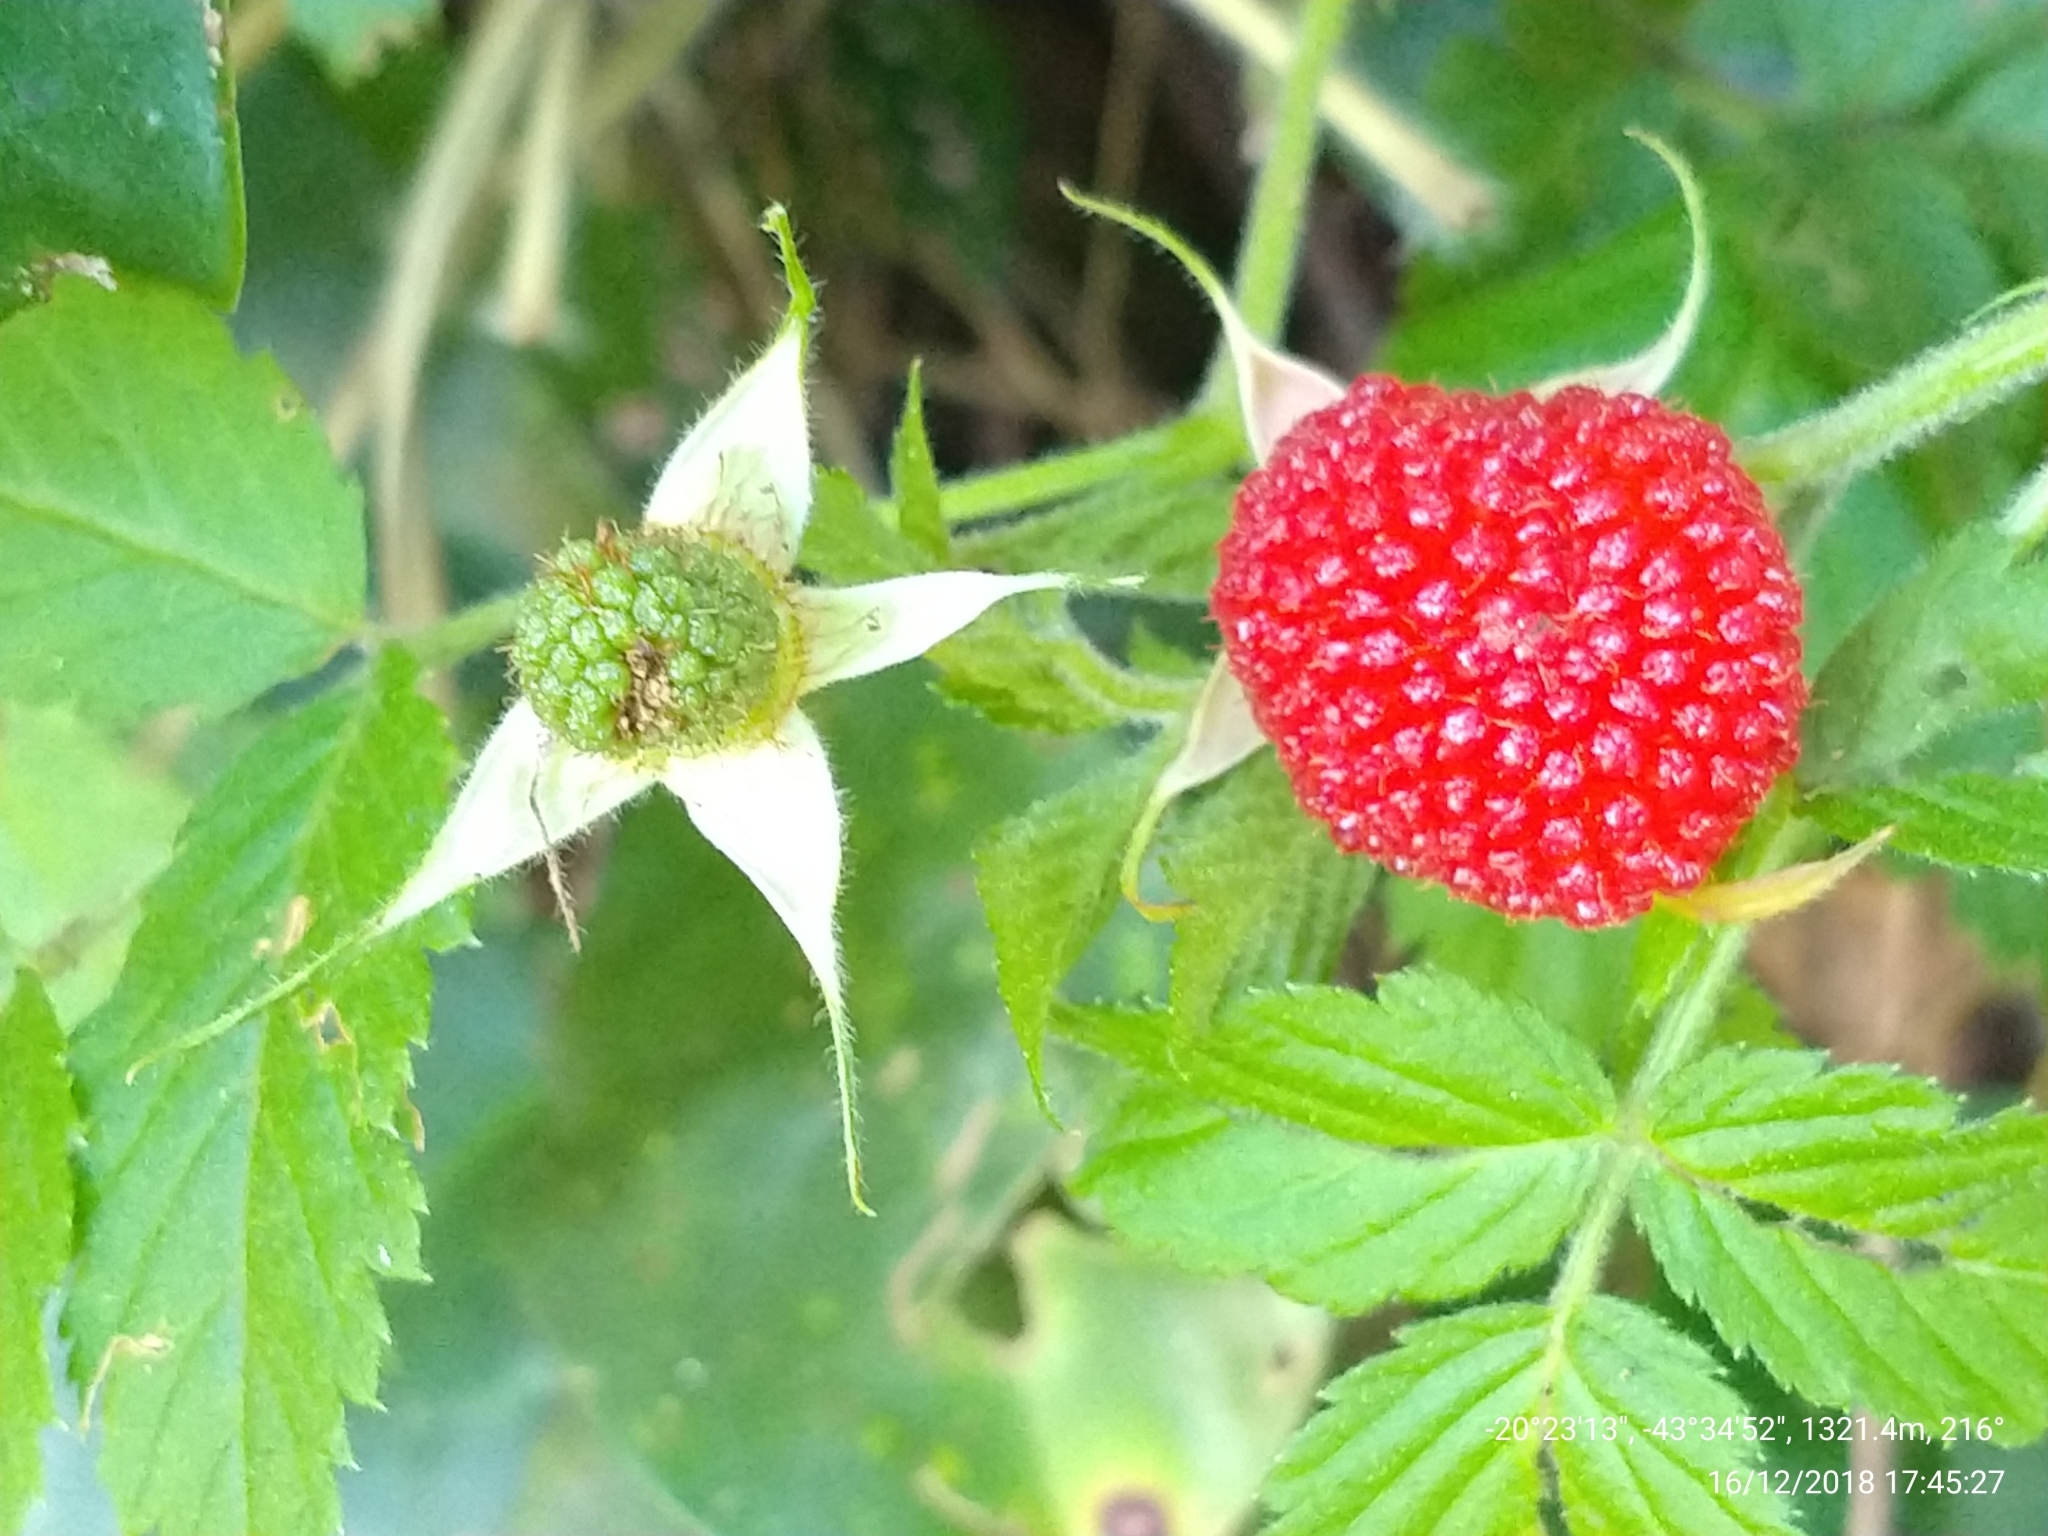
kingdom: Plantae
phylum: Tracheophyta
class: Magnoliopsida
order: Rosales
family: Rosaceae
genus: Rubus
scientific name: Rubus rosifolius
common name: Roseleaf raspberry
